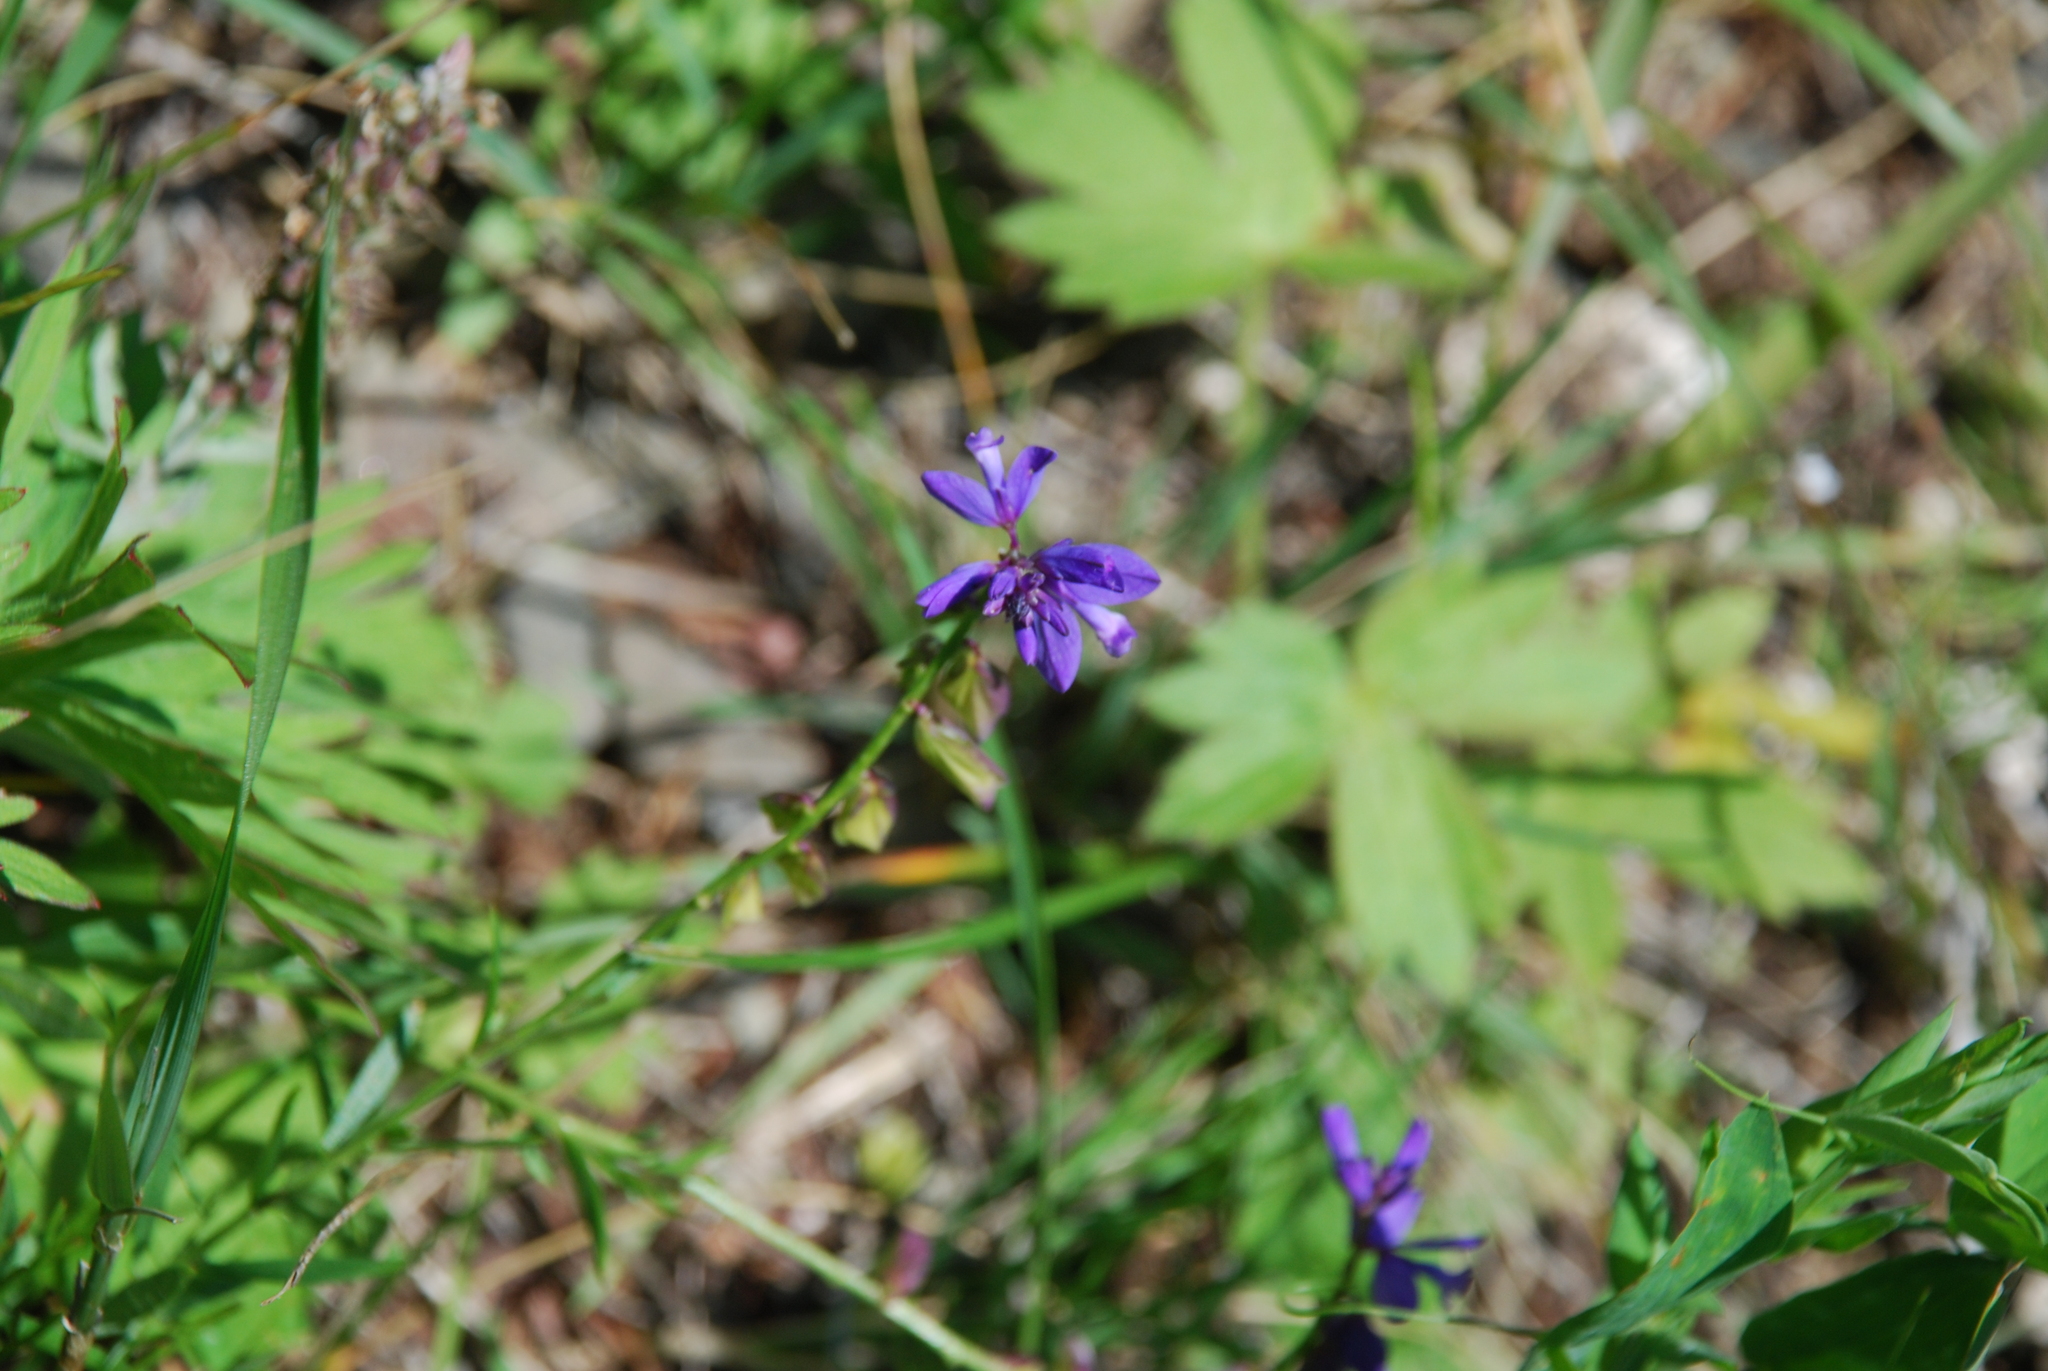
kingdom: Plantae
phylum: Tracheophyta
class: Magnoliopsida
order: Fabales
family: Polygalaceae
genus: Polygala
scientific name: Polygala comosa
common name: Tufted milkwort
